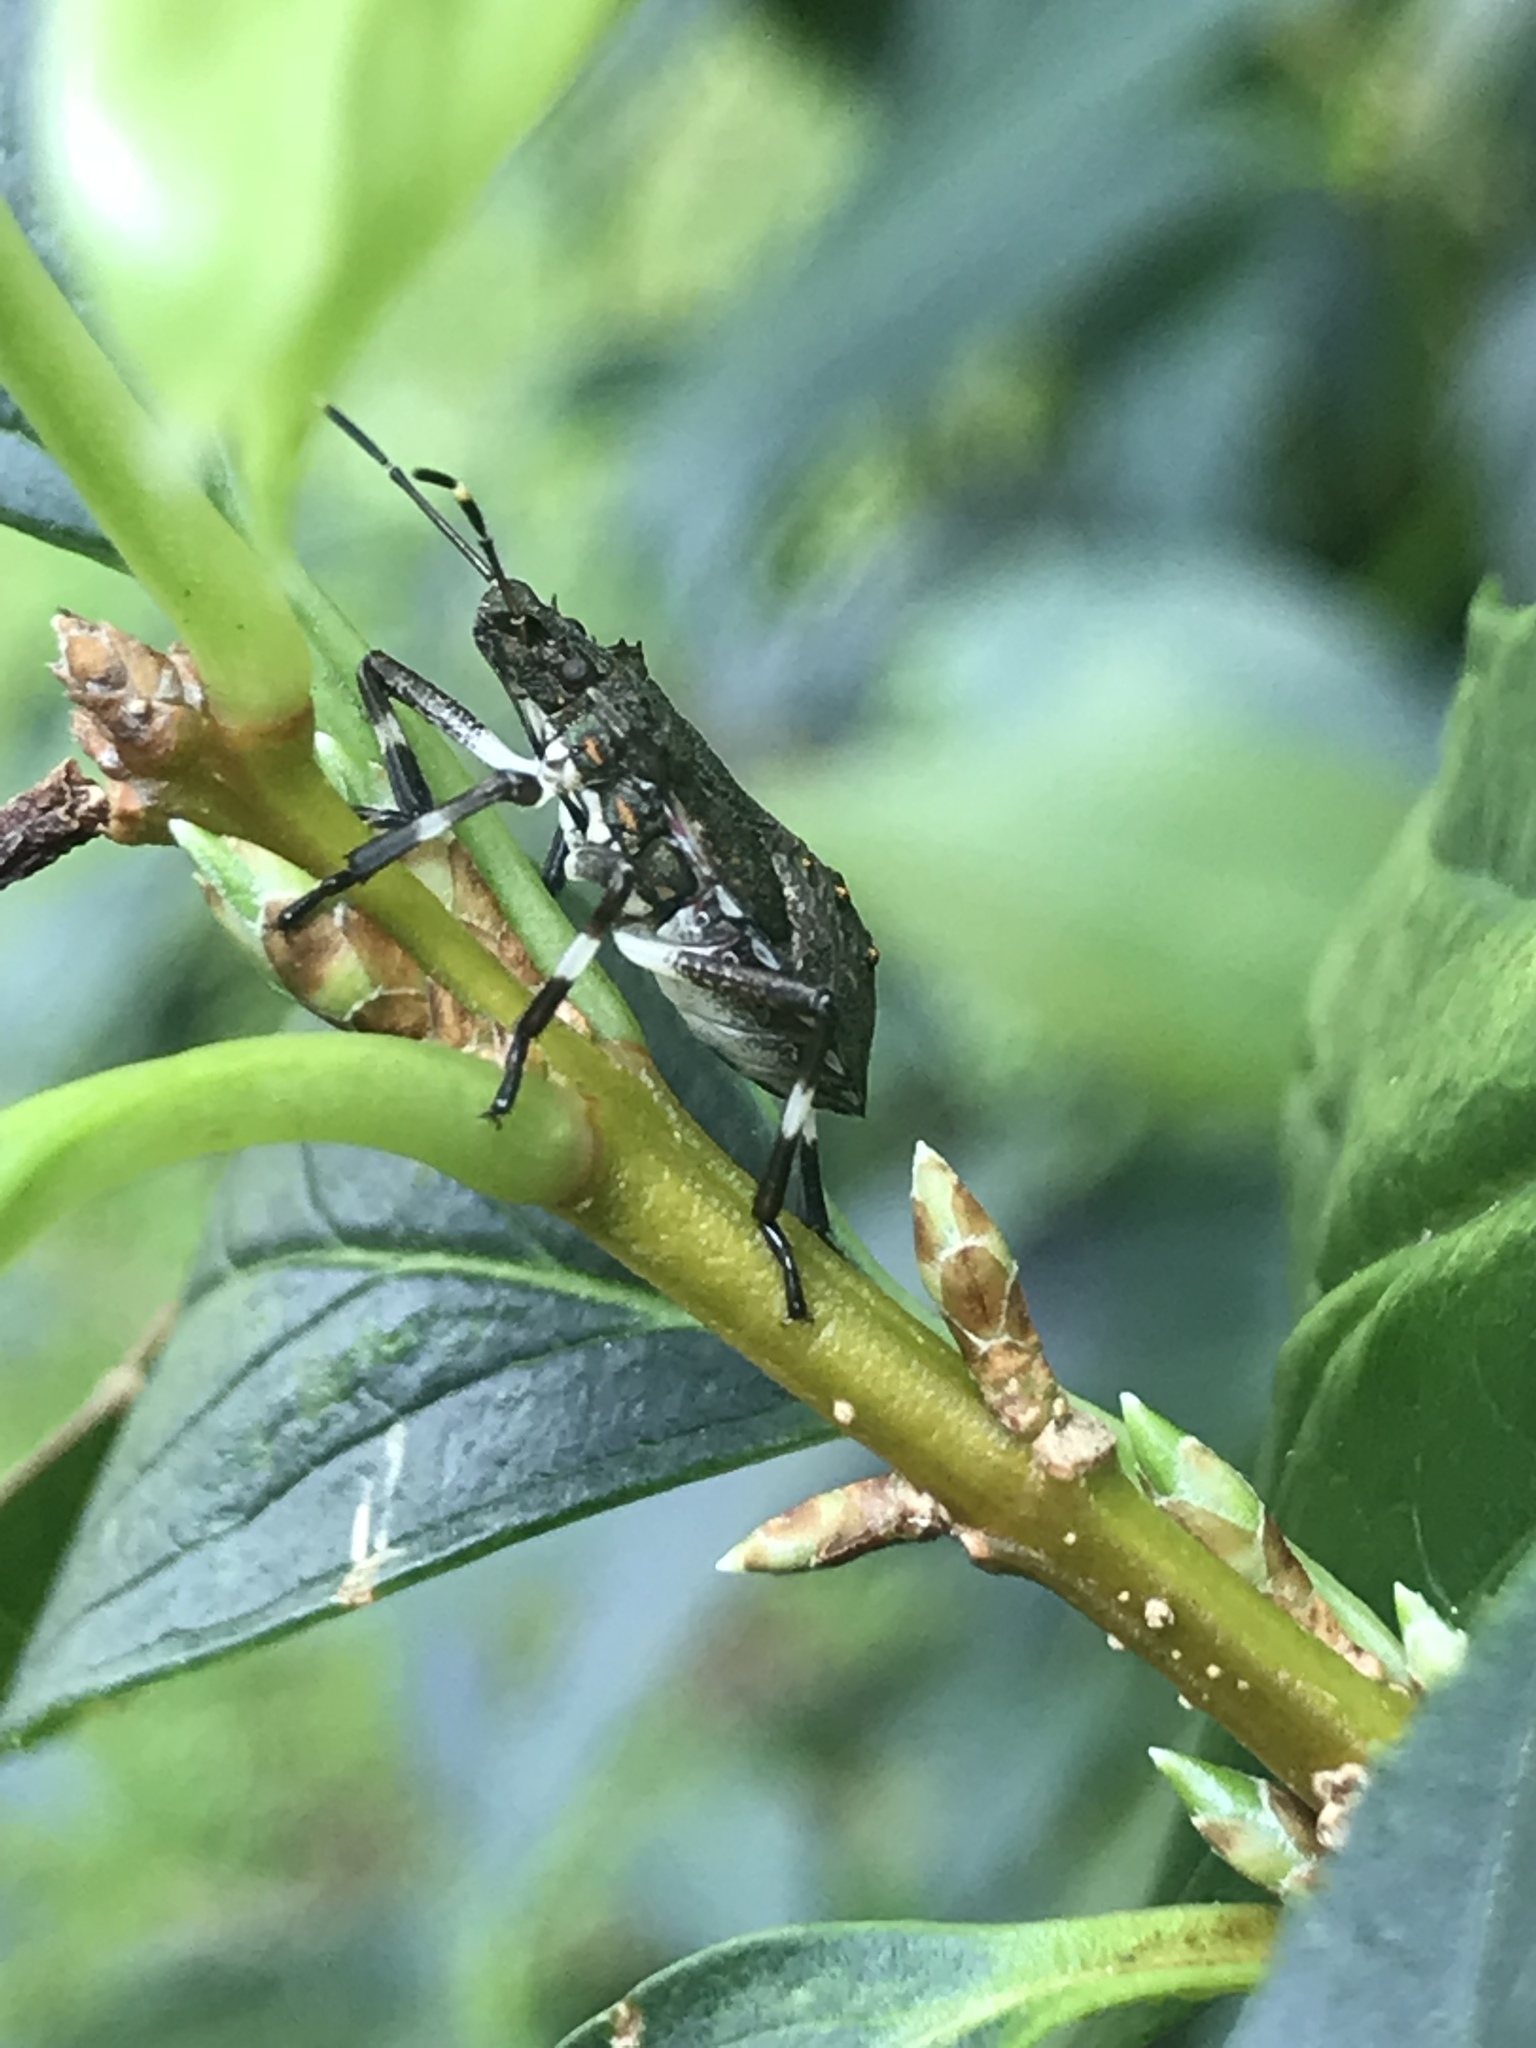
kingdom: Animalia
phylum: Arthropoda
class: Insecta
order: Hemiptera
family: Pentatomidae
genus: Halyomorpha
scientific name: Halyomorpha halys
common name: Brown marmorated stink bug
